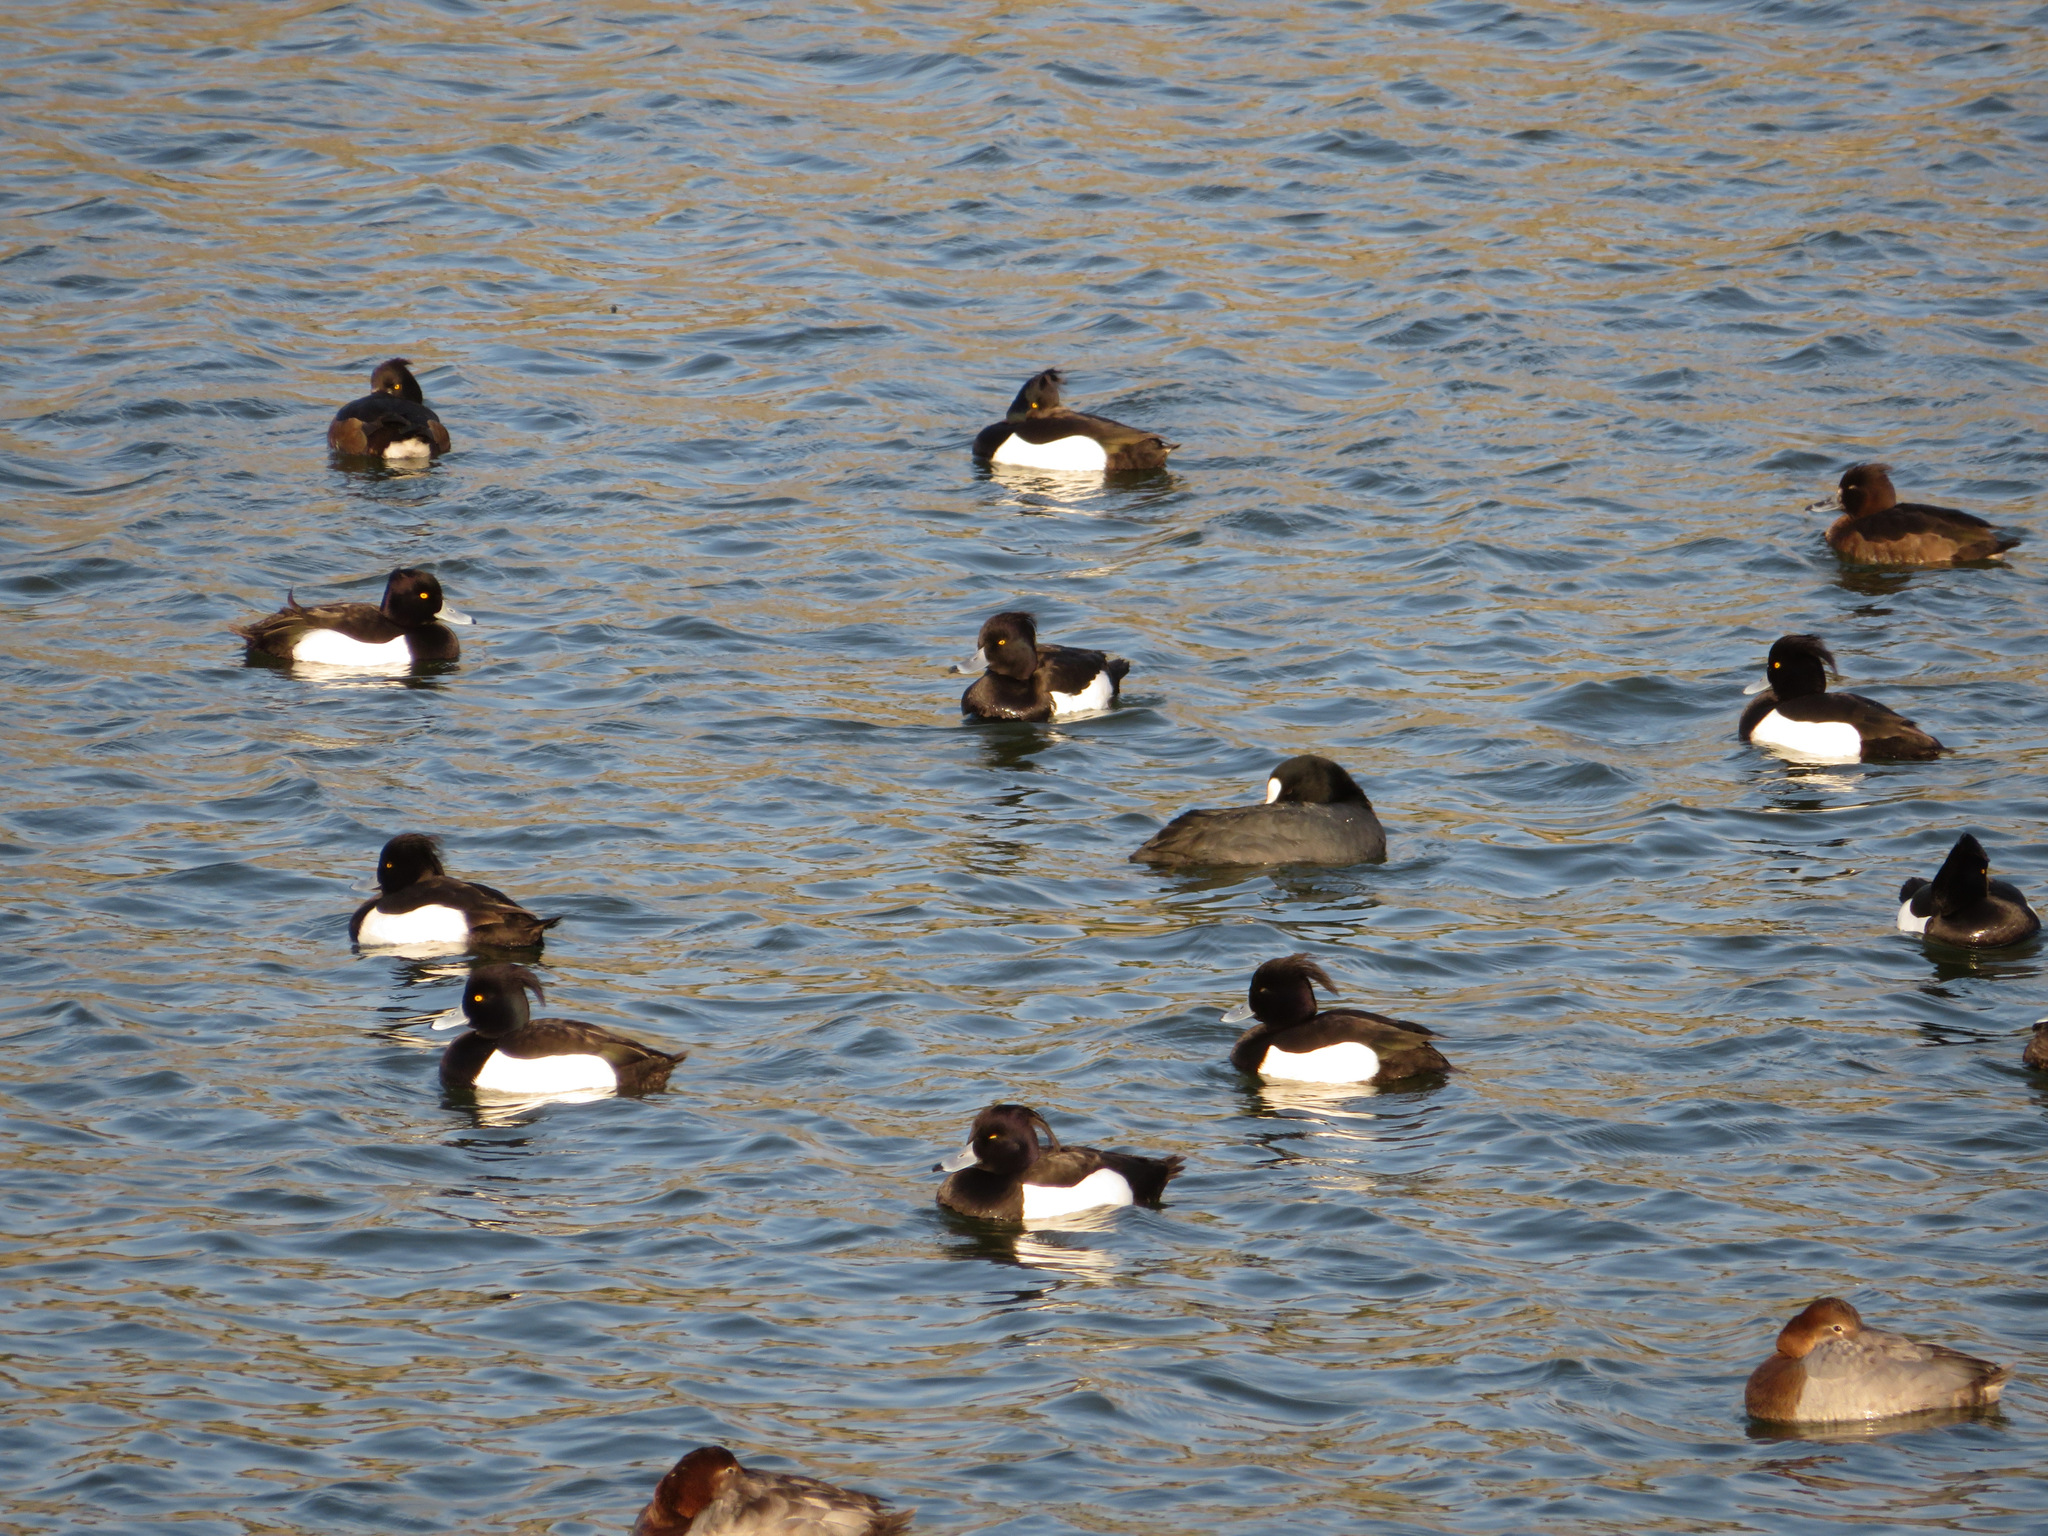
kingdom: Animalia
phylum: Chordata
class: Aves
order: Anseriformes
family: Anatidae
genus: Aythya
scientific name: Aythya fuligula
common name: Tufted duck
